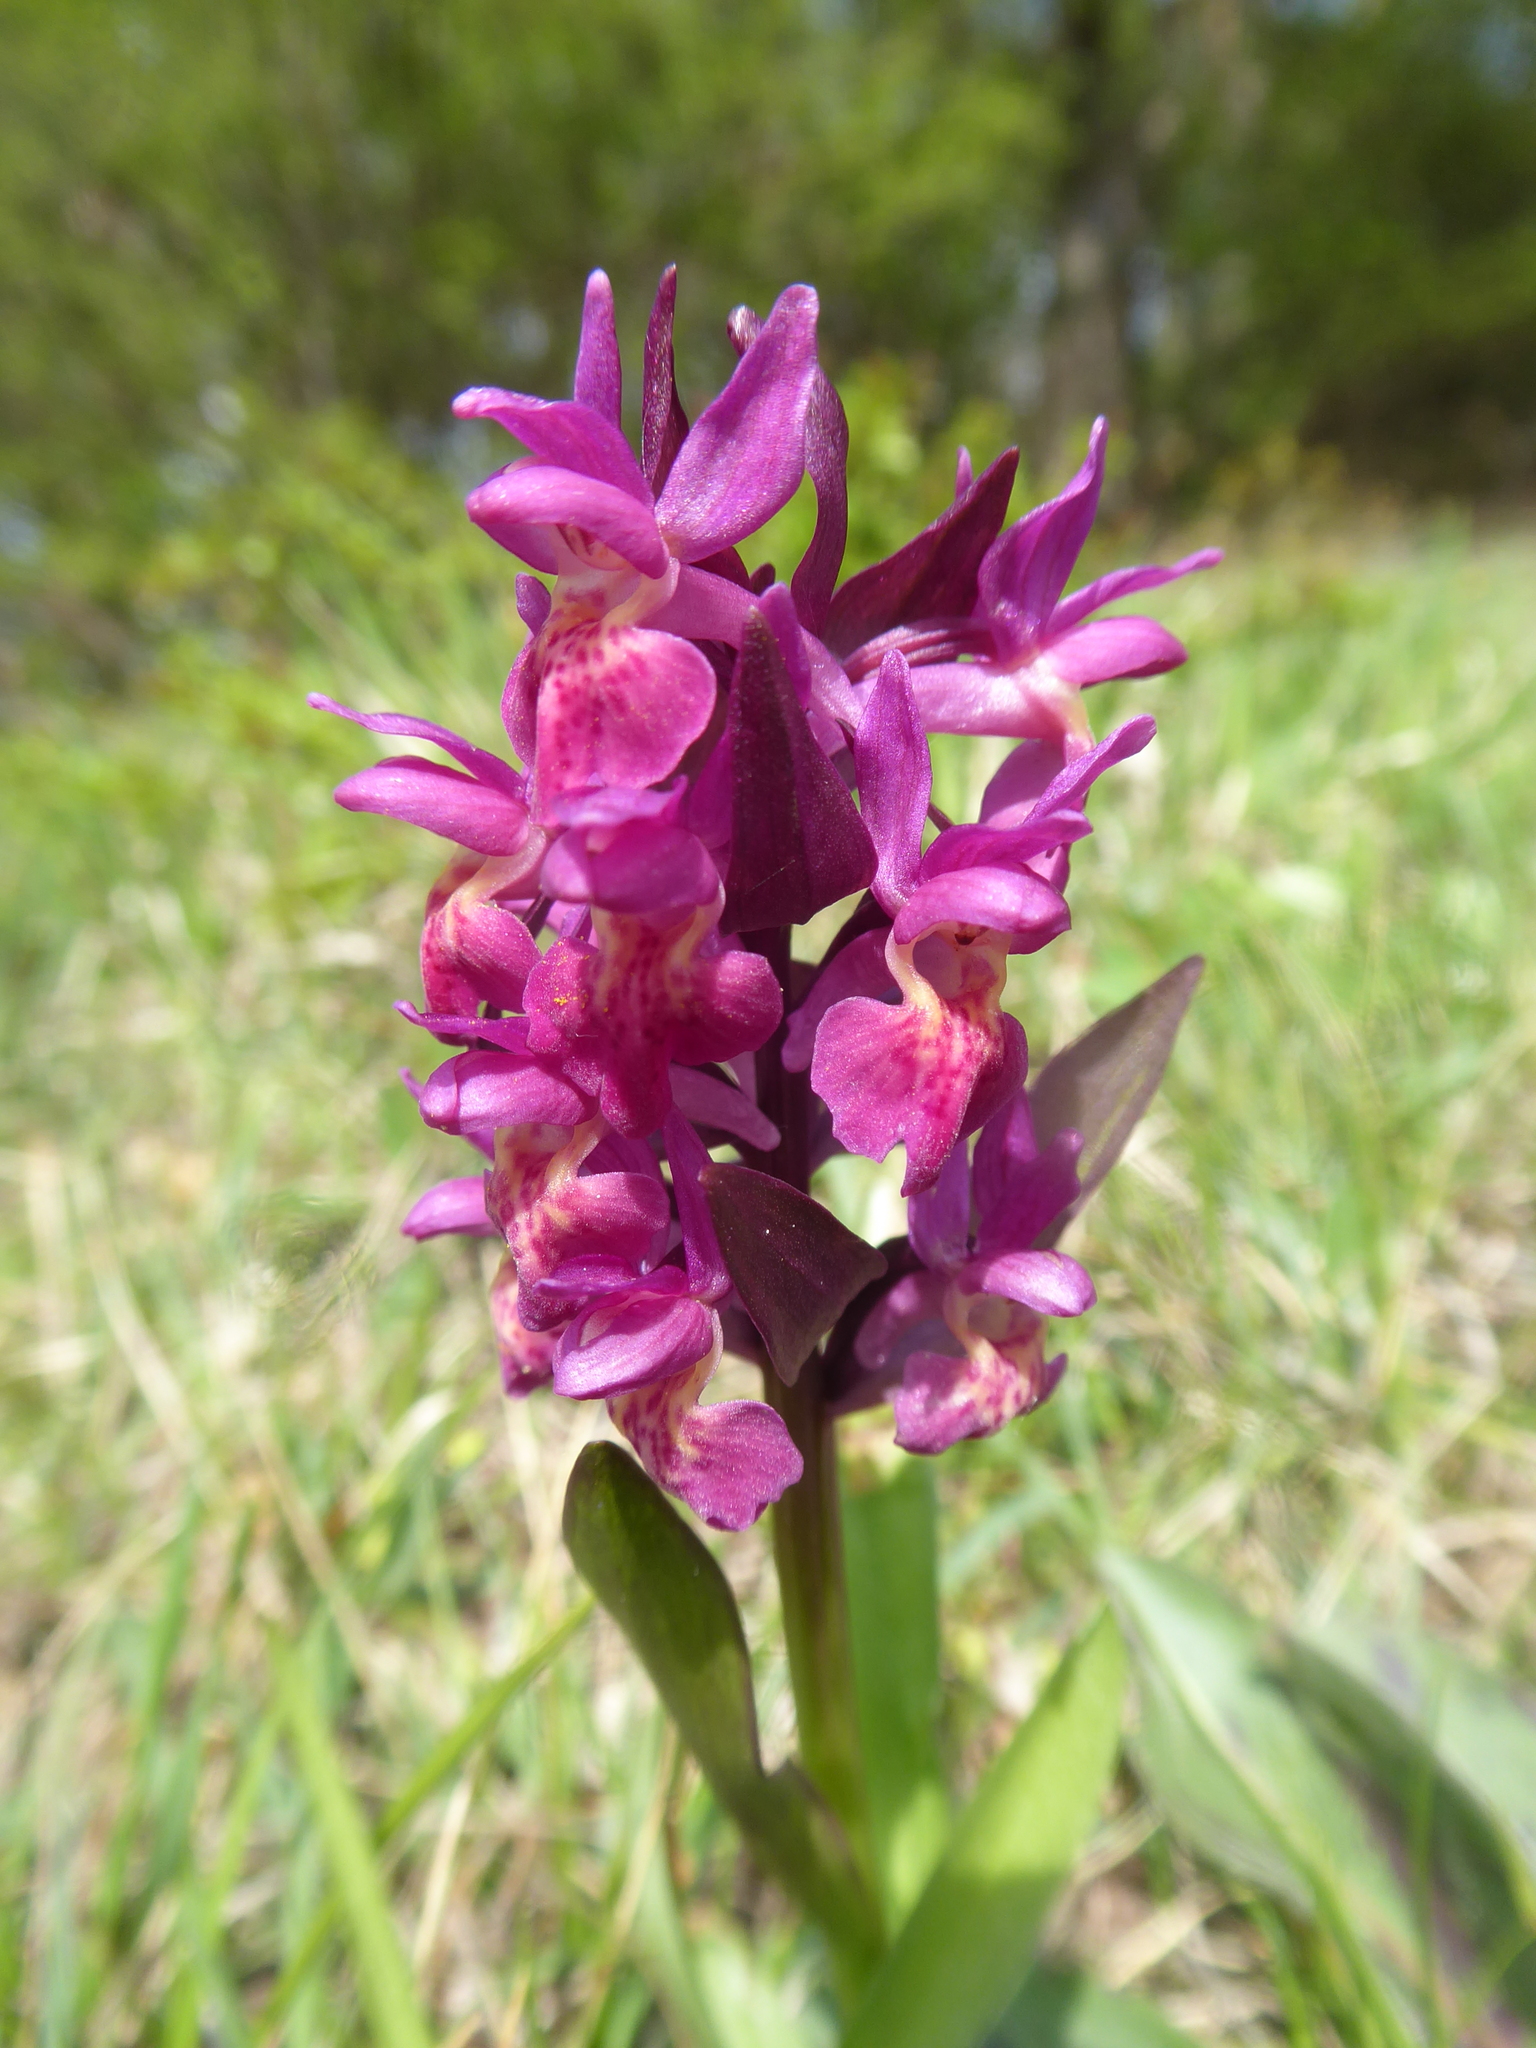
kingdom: Plantae
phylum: Tracheophyta
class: Liliopsida
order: Asparagales
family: Orchidaceae
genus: Dactylorhiza
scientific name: Dactylorhiza sambucina
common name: Elder-flowered orchid
